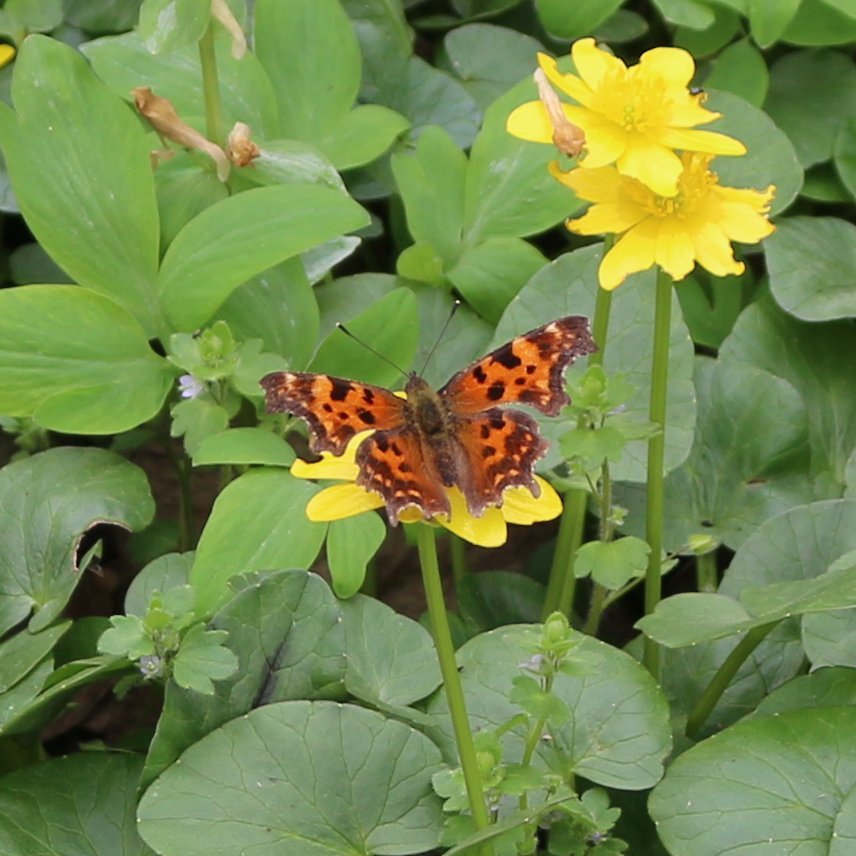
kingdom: Animalia
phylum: Arthropoda
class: Insecta
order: Lepidoptera
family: Nymphalidae
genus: Polygonia
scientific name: Polygonia c-album
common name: Comma
